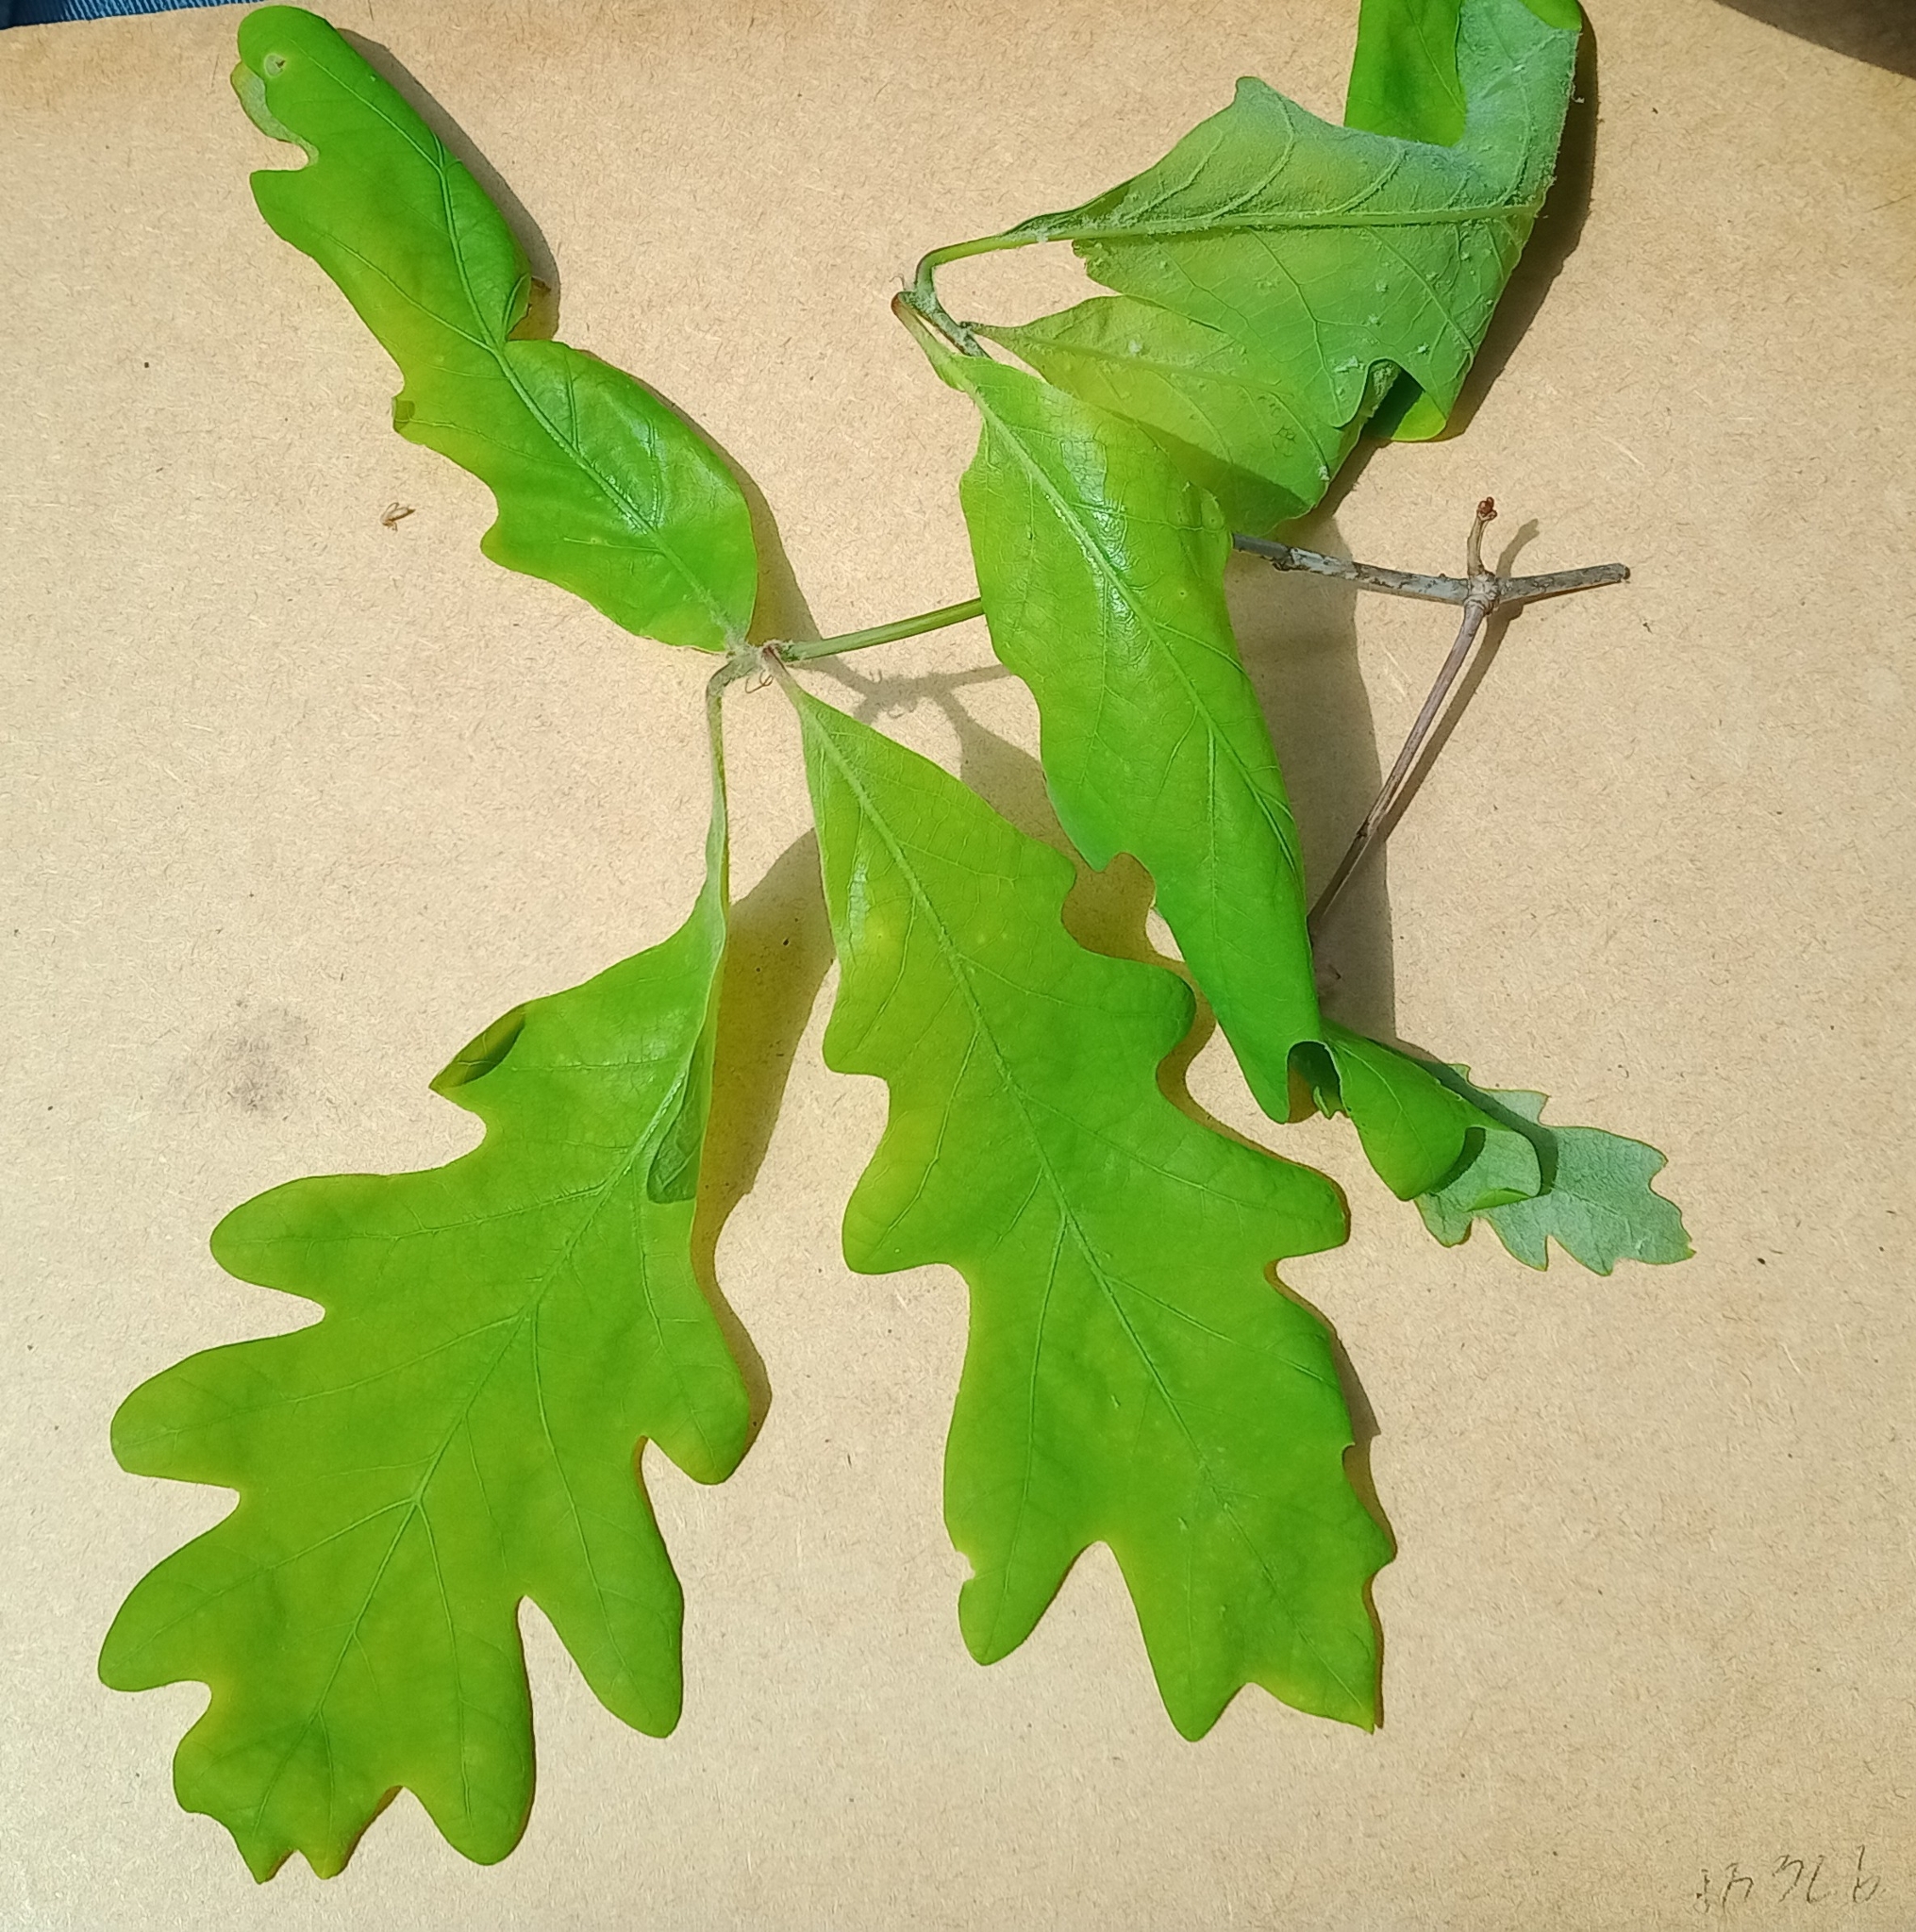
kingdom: Animalia
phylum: Arthropoda
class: Insecta
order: Hymenoptera
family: Cynipidae
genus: Callirhytis
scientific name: Callirhytis
